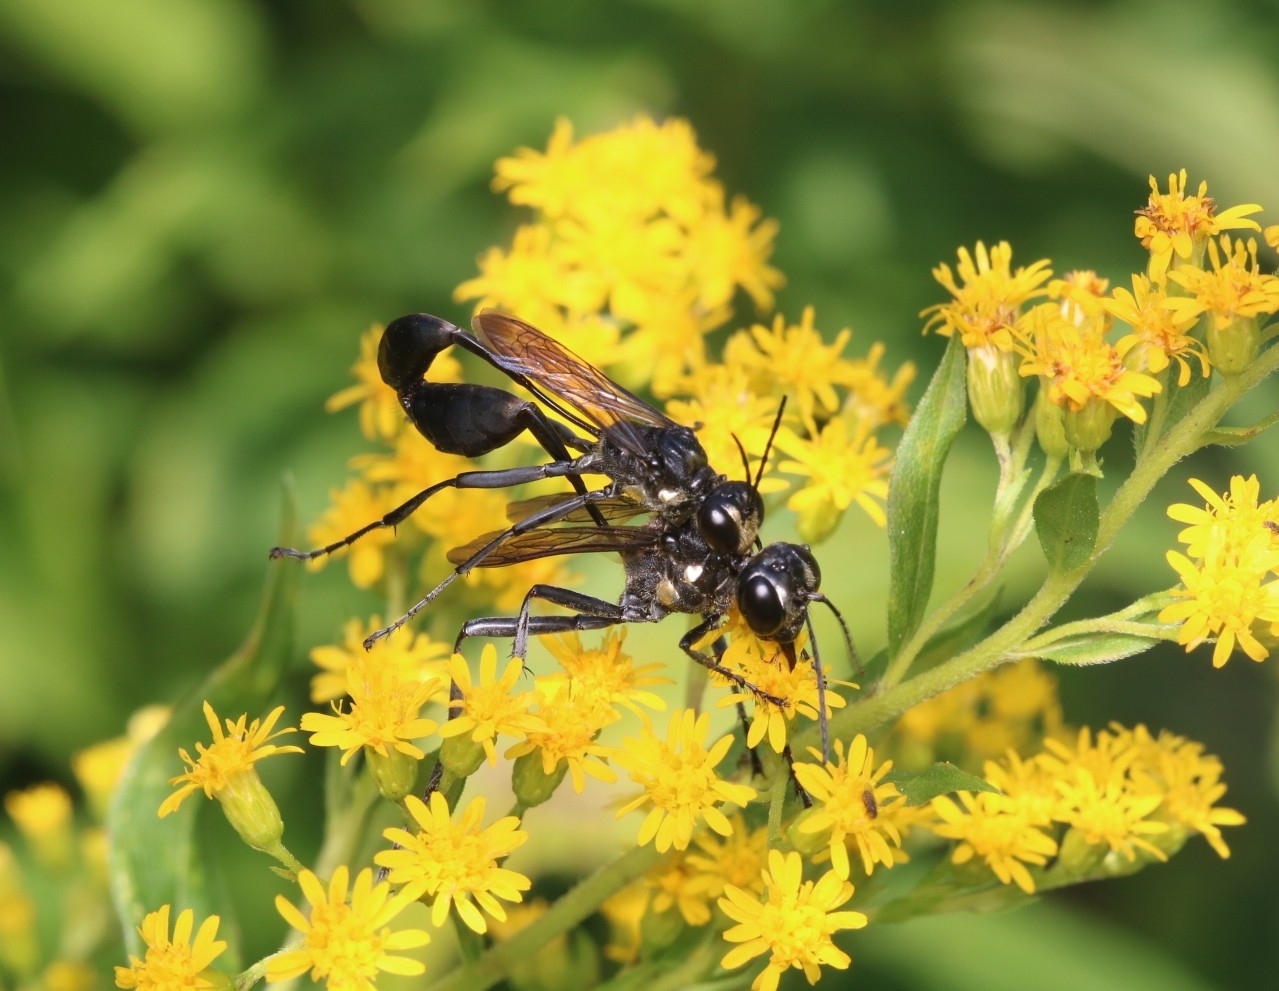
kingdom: Animalia
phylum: Arthropoda
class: Insecta
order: Hymenoptera
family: Sphecidae
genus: Eremnophila
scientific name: Eremnophila aureonotata
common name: Gold-marked thread-waisted wasp
